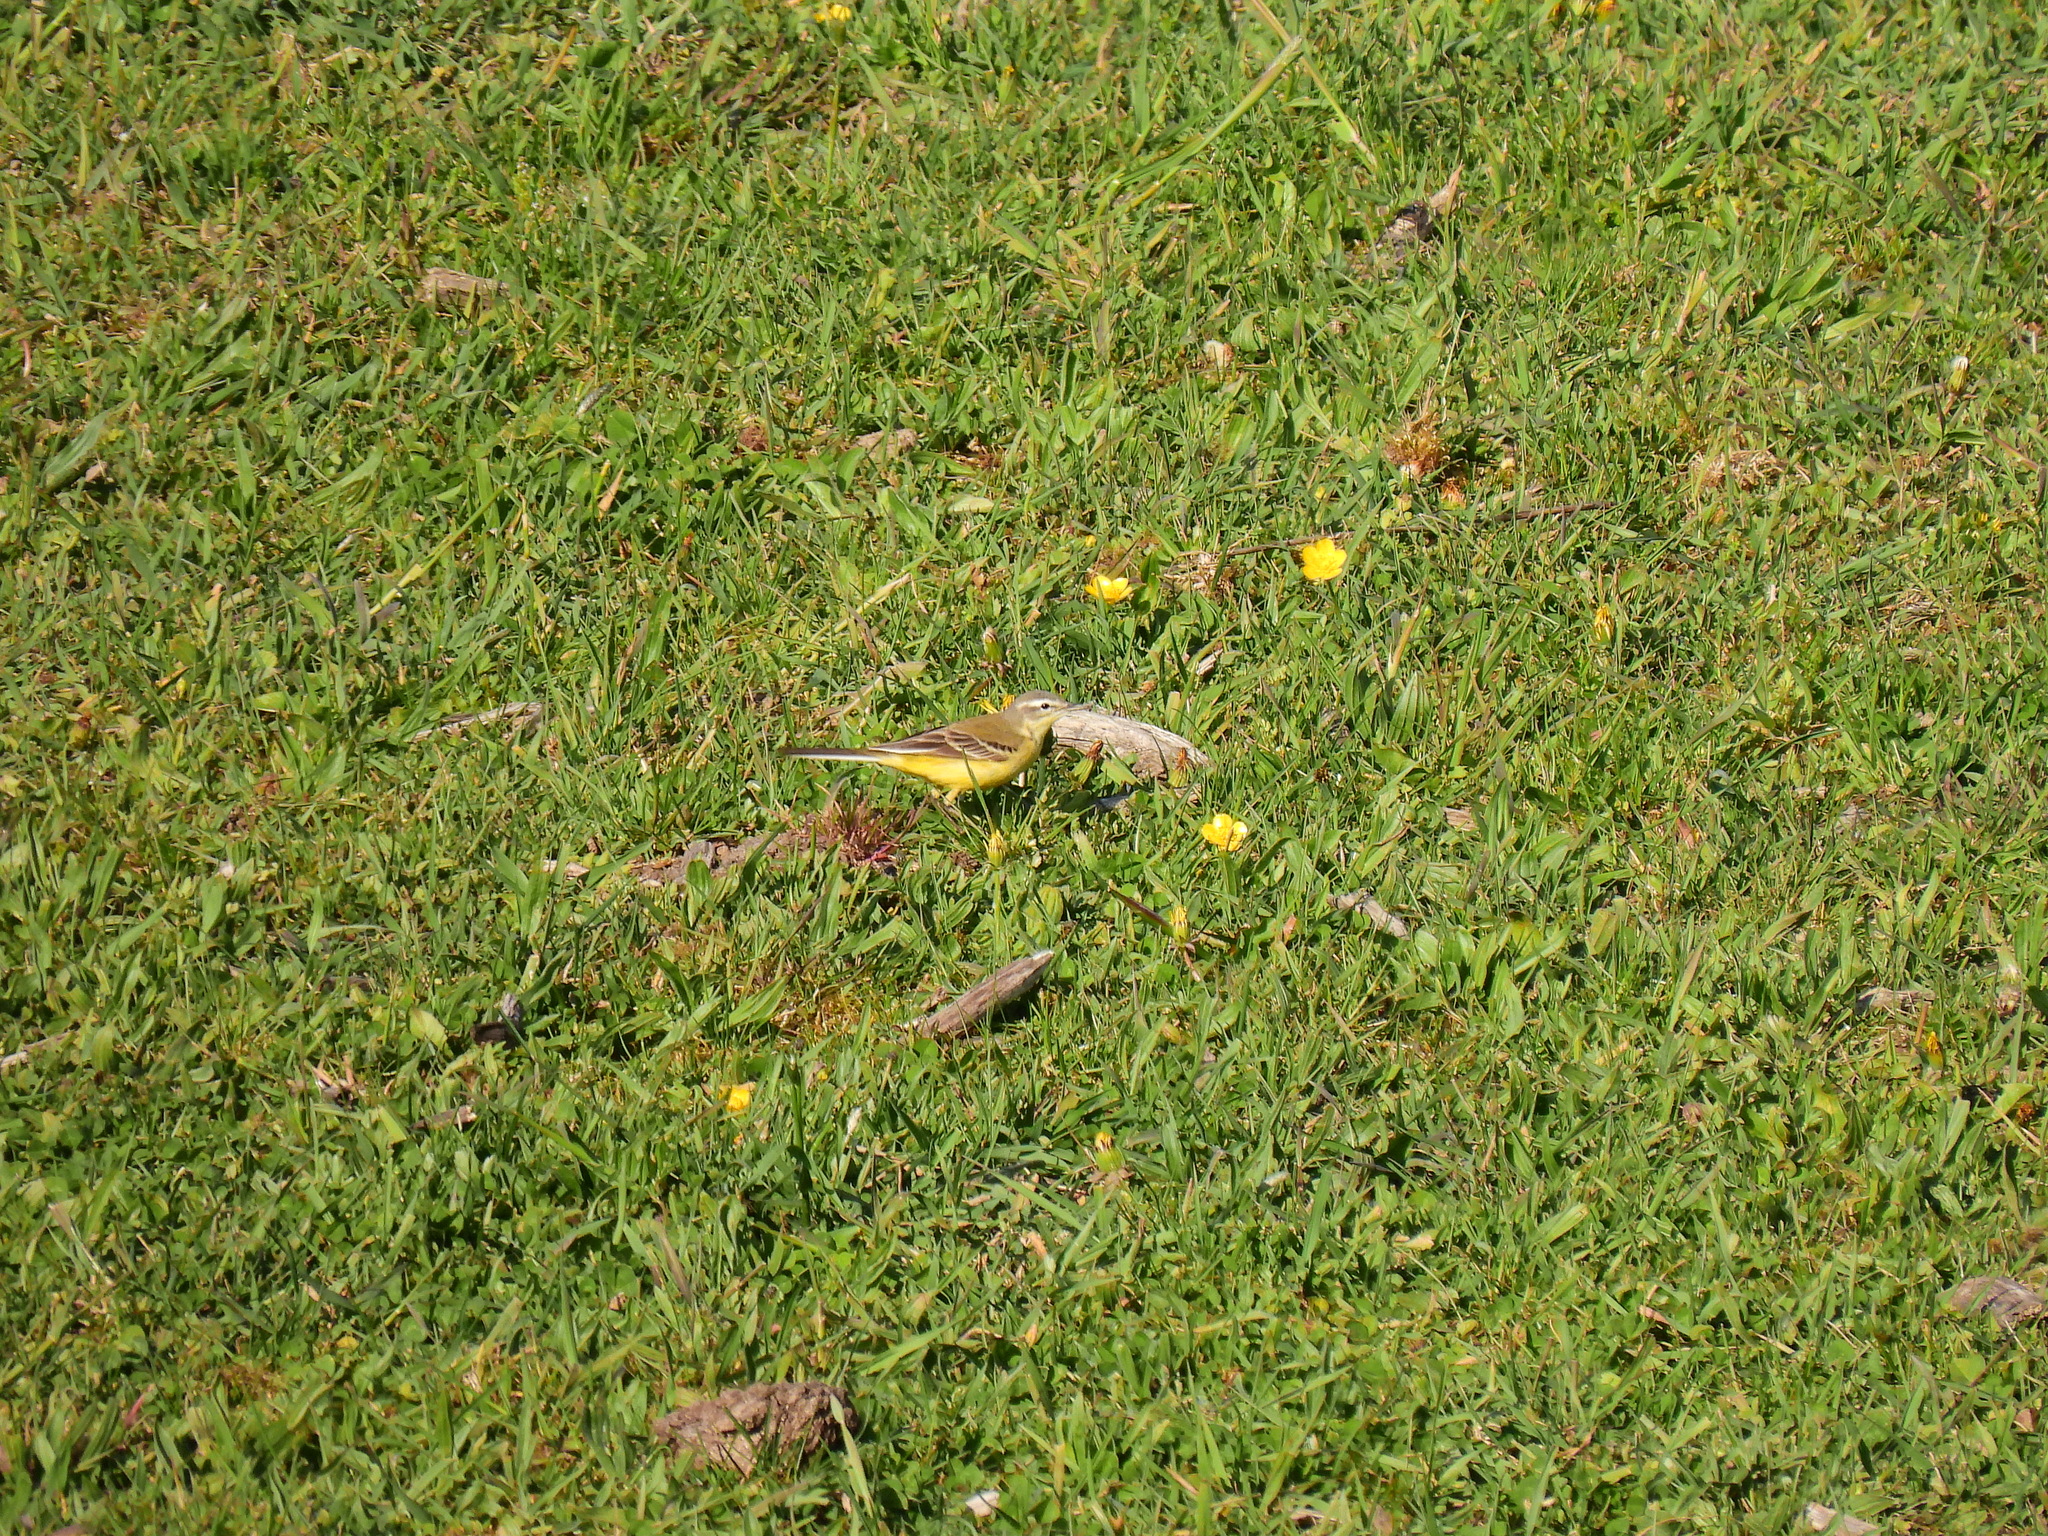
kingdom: Animalia
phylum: Chordata
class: Aves
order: Passeriformes
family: Motacillidae
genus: Motacilla
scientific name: Motacilla flava
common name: Western yellow wagtail
